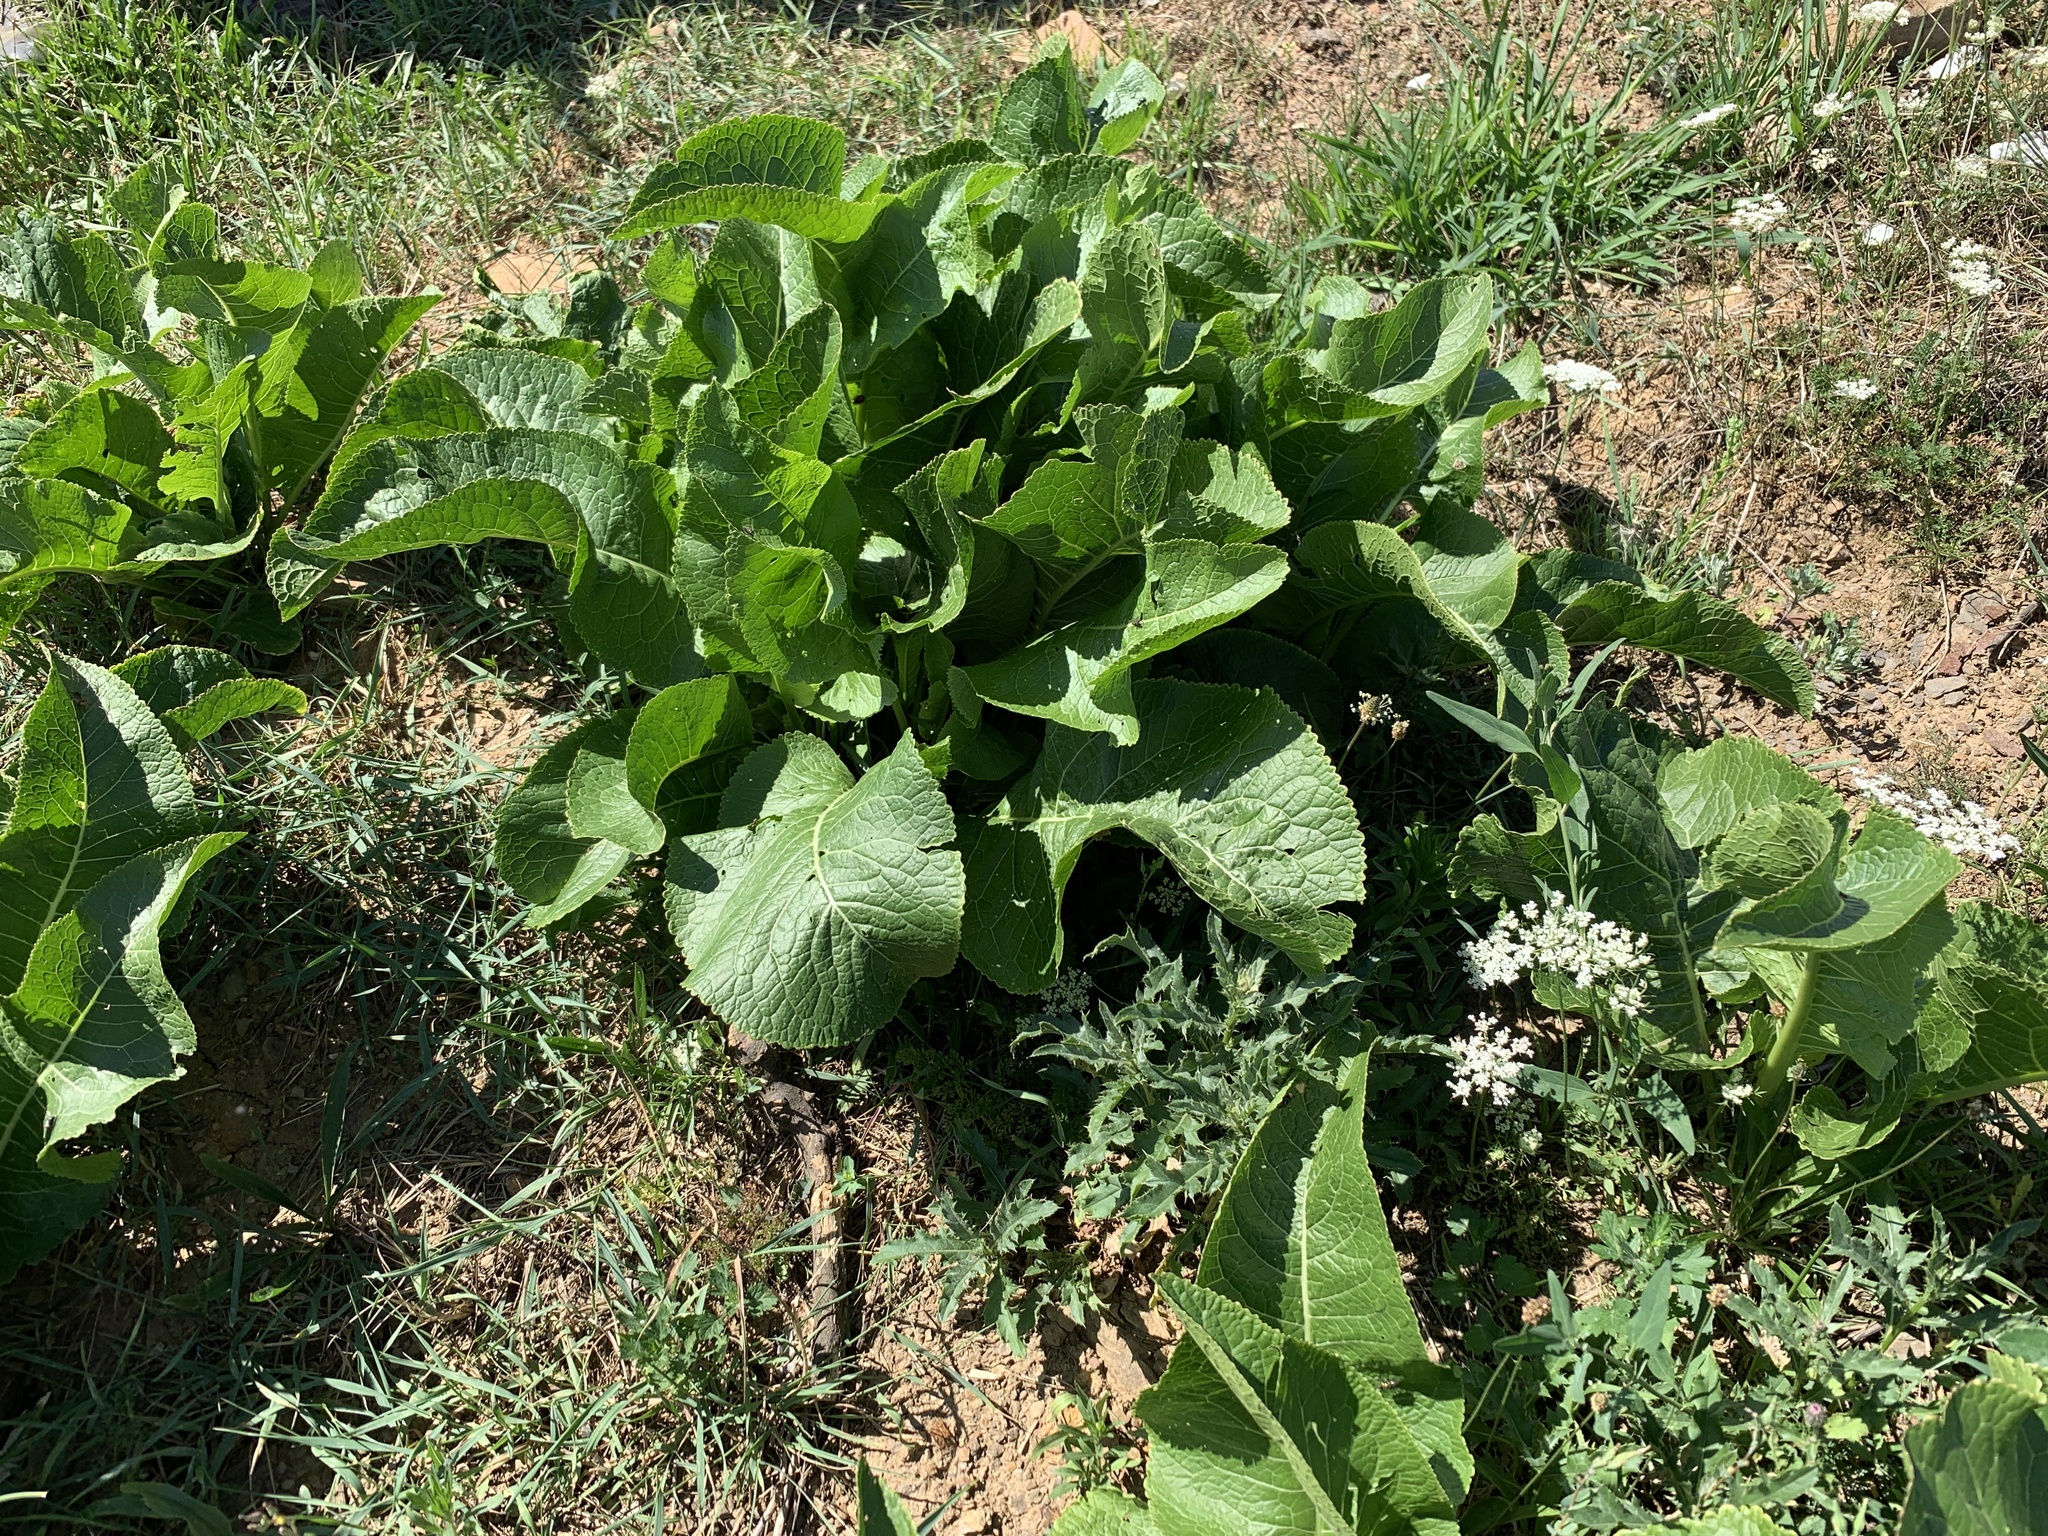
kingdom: Plantae
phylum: Tracheophyta
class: Magnoliopsida
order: Brassicales
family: Brassicaceae
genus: Armoracia
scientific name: Armoracia rusticana
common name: Horseradish
